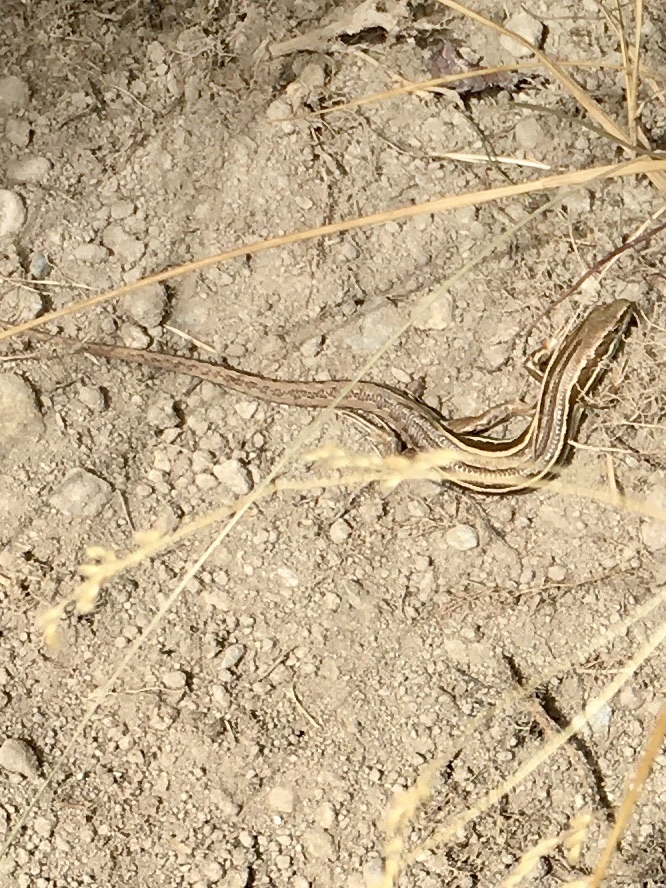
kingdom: Animalia
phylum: Chordata
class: Squamata
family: Scincidae
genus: Oligosoma
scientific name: Oligosoma polychroma
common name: Common new zealand skink
